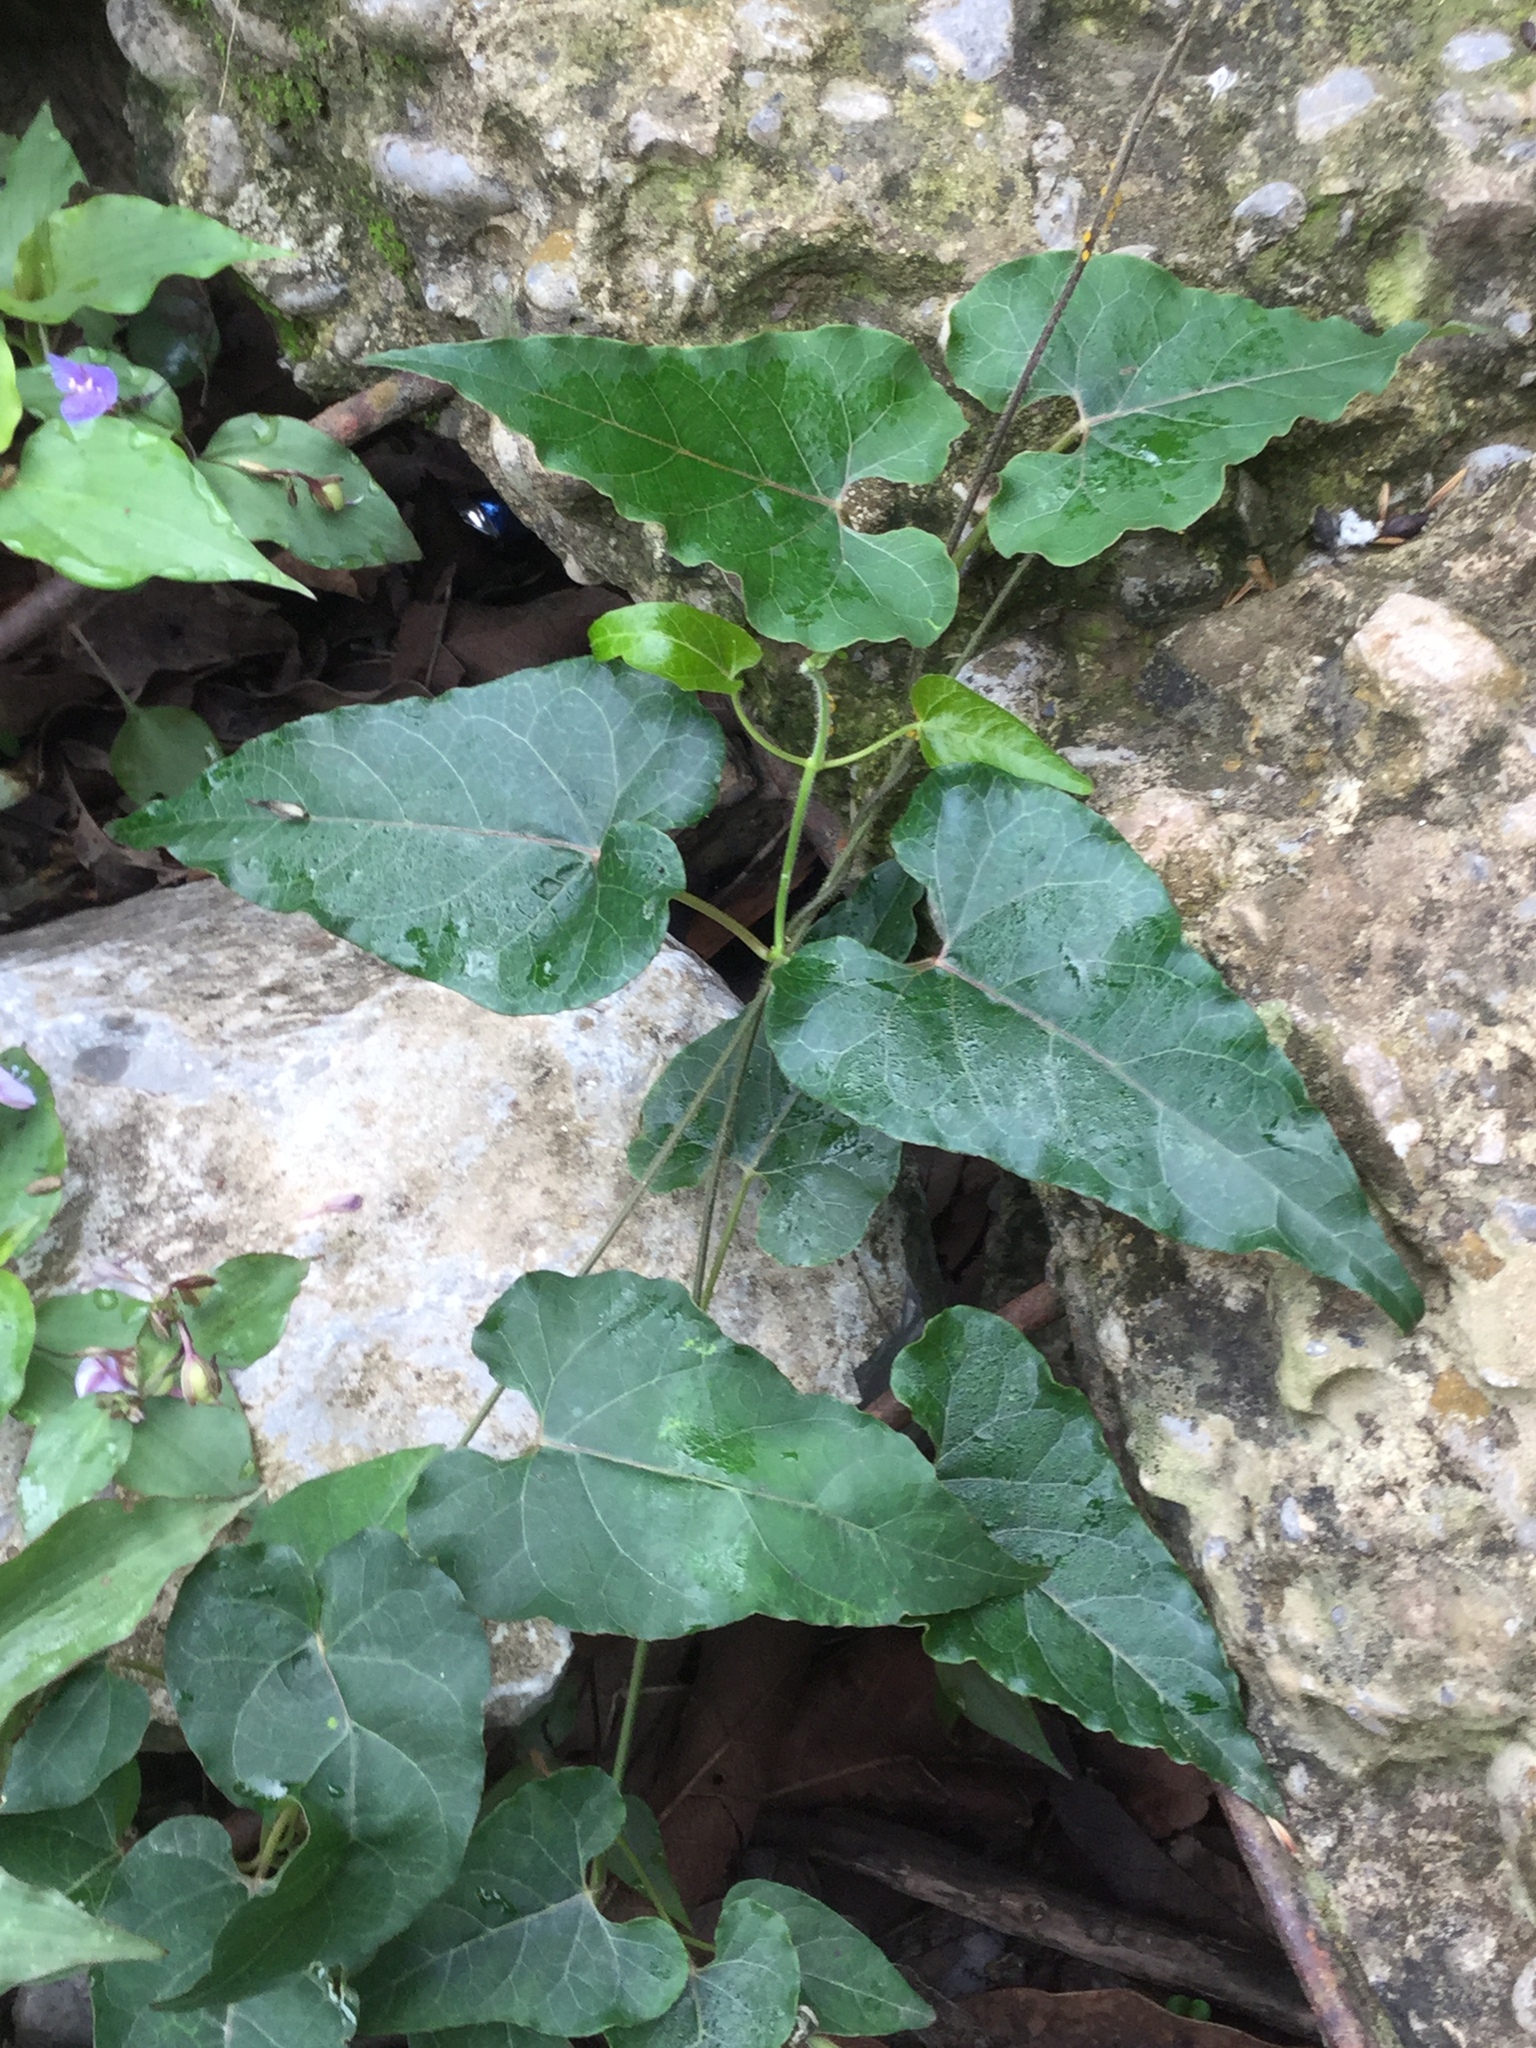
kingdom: Plantae
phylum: Tracheophyta
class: Magnoliopsida
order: Gentianales
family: Apocynaceae
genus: Gonolobus
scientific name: Gonolobus calcaratus
